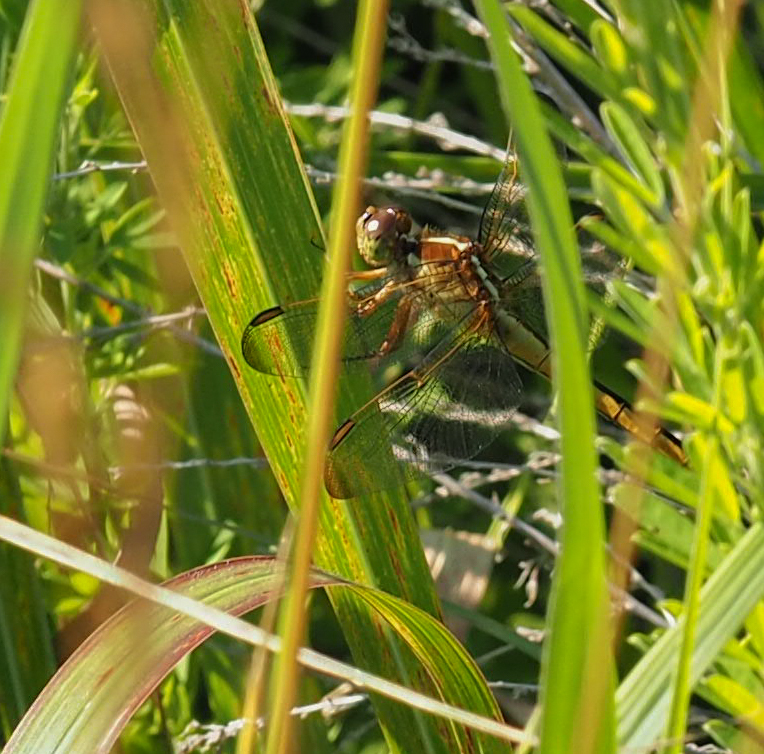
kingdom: Animalia
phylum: Arthropoda
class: Insecta
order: Odonata
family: Libellulidae
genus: Libellula
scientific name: Libellula needhami
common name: Needham's skimmer
